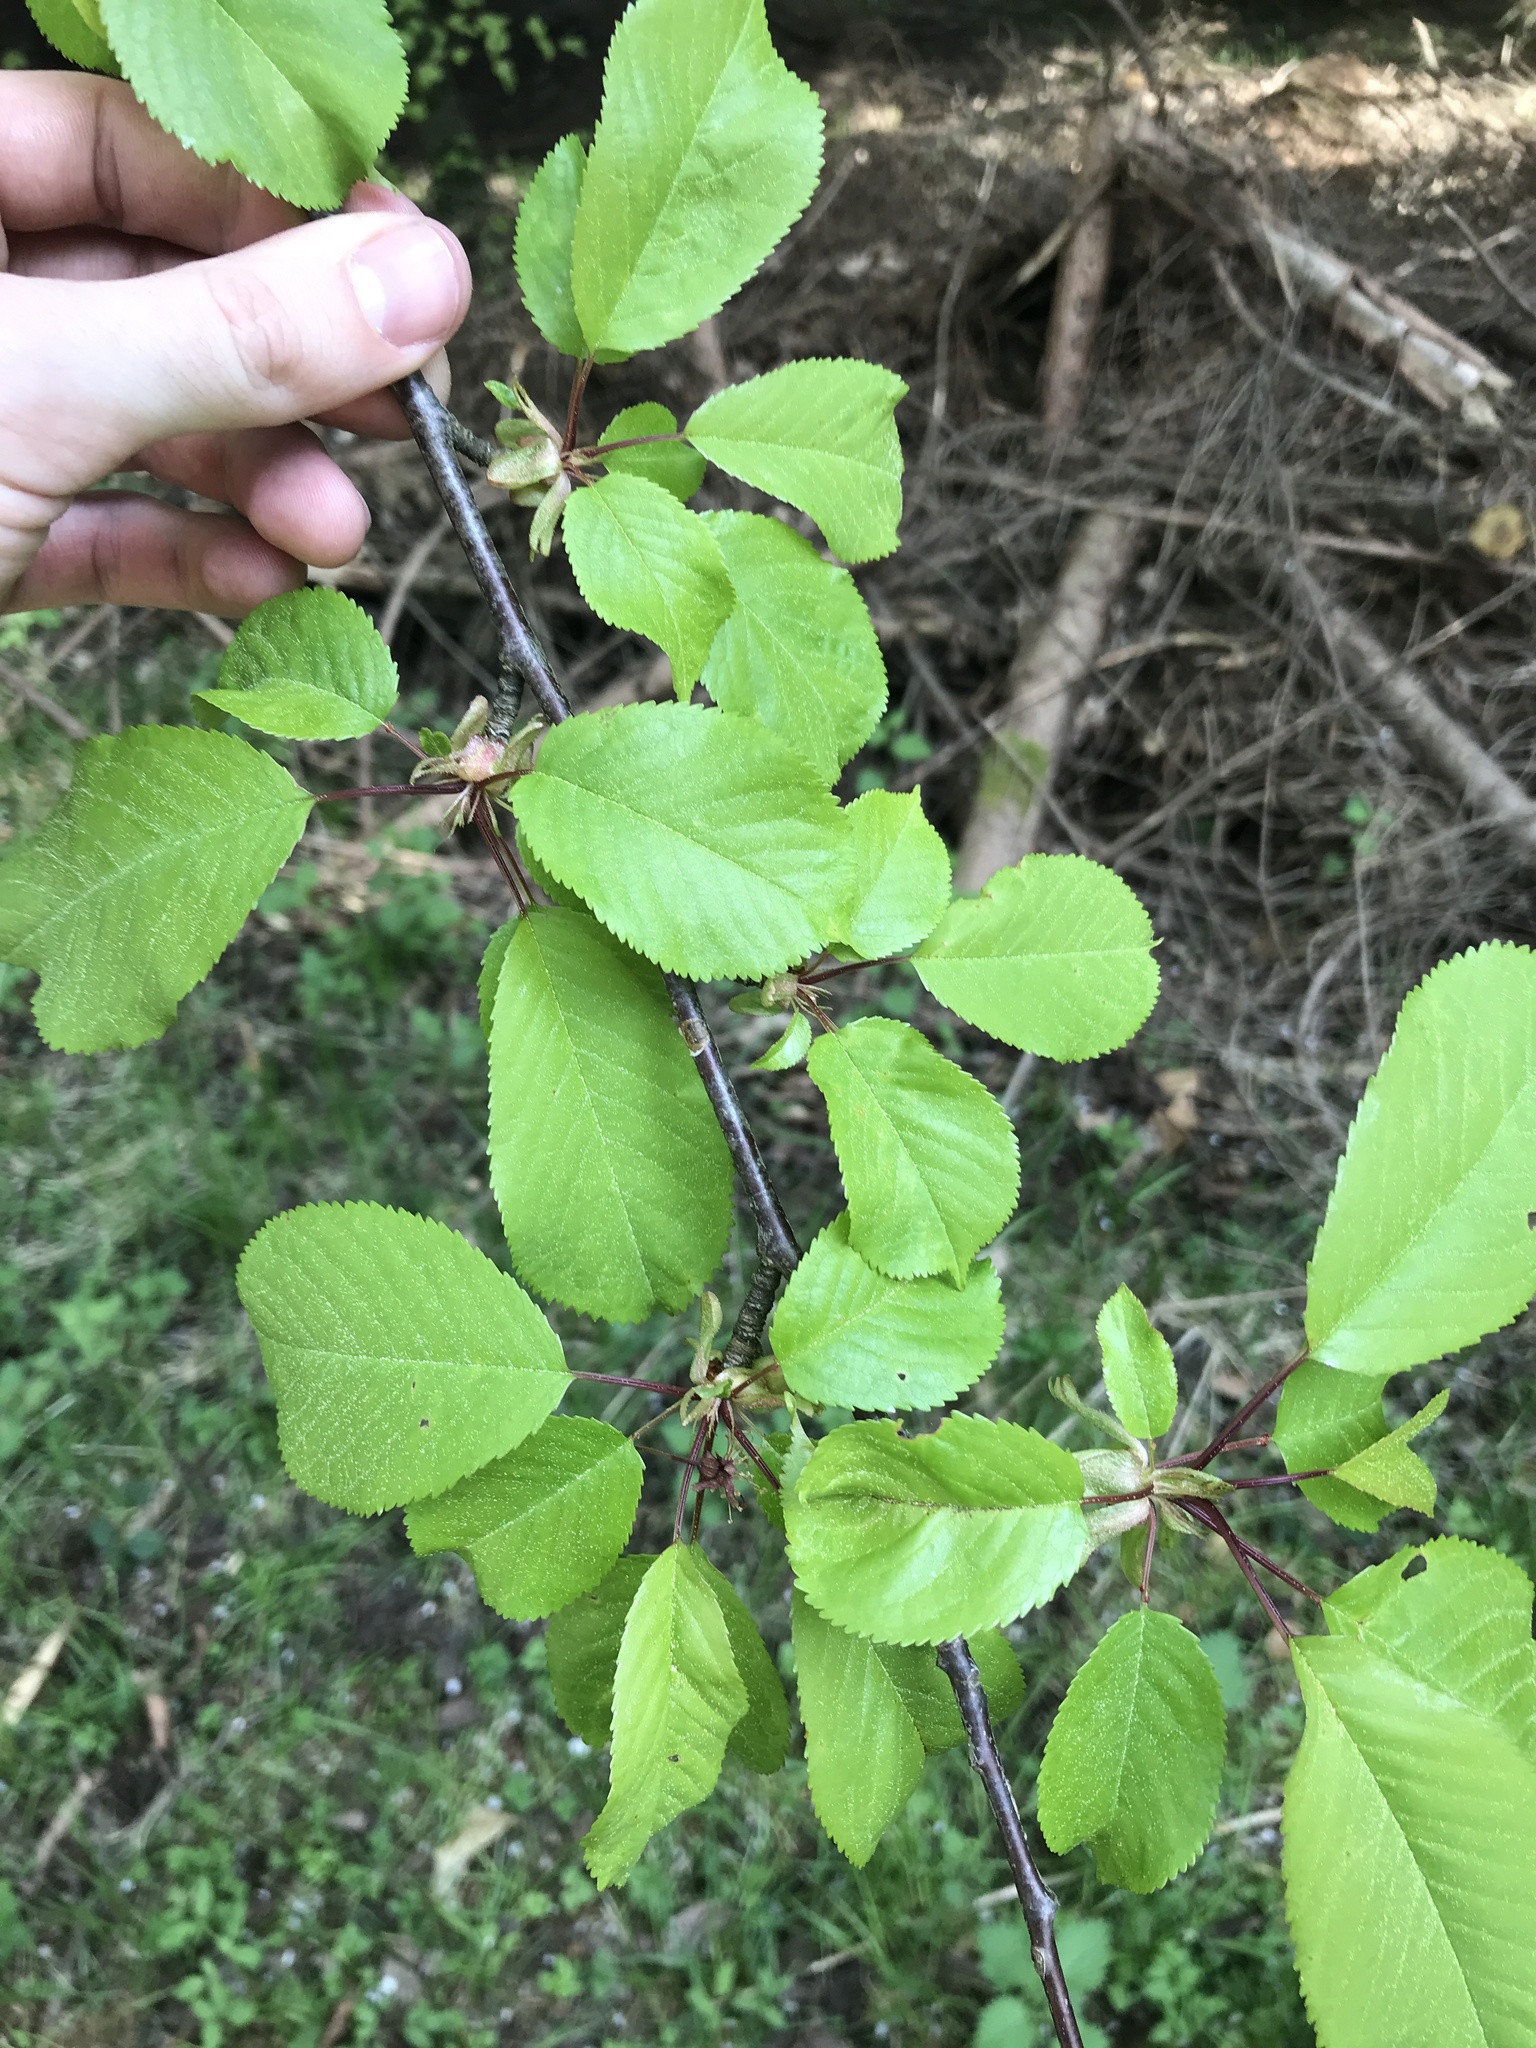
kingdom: Plantae
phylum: Tracheophyta
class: Magnoliopsida
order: Rosales
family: Rosaceae
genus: Prunus
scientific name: Prunus avium
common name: Sweet cherry
